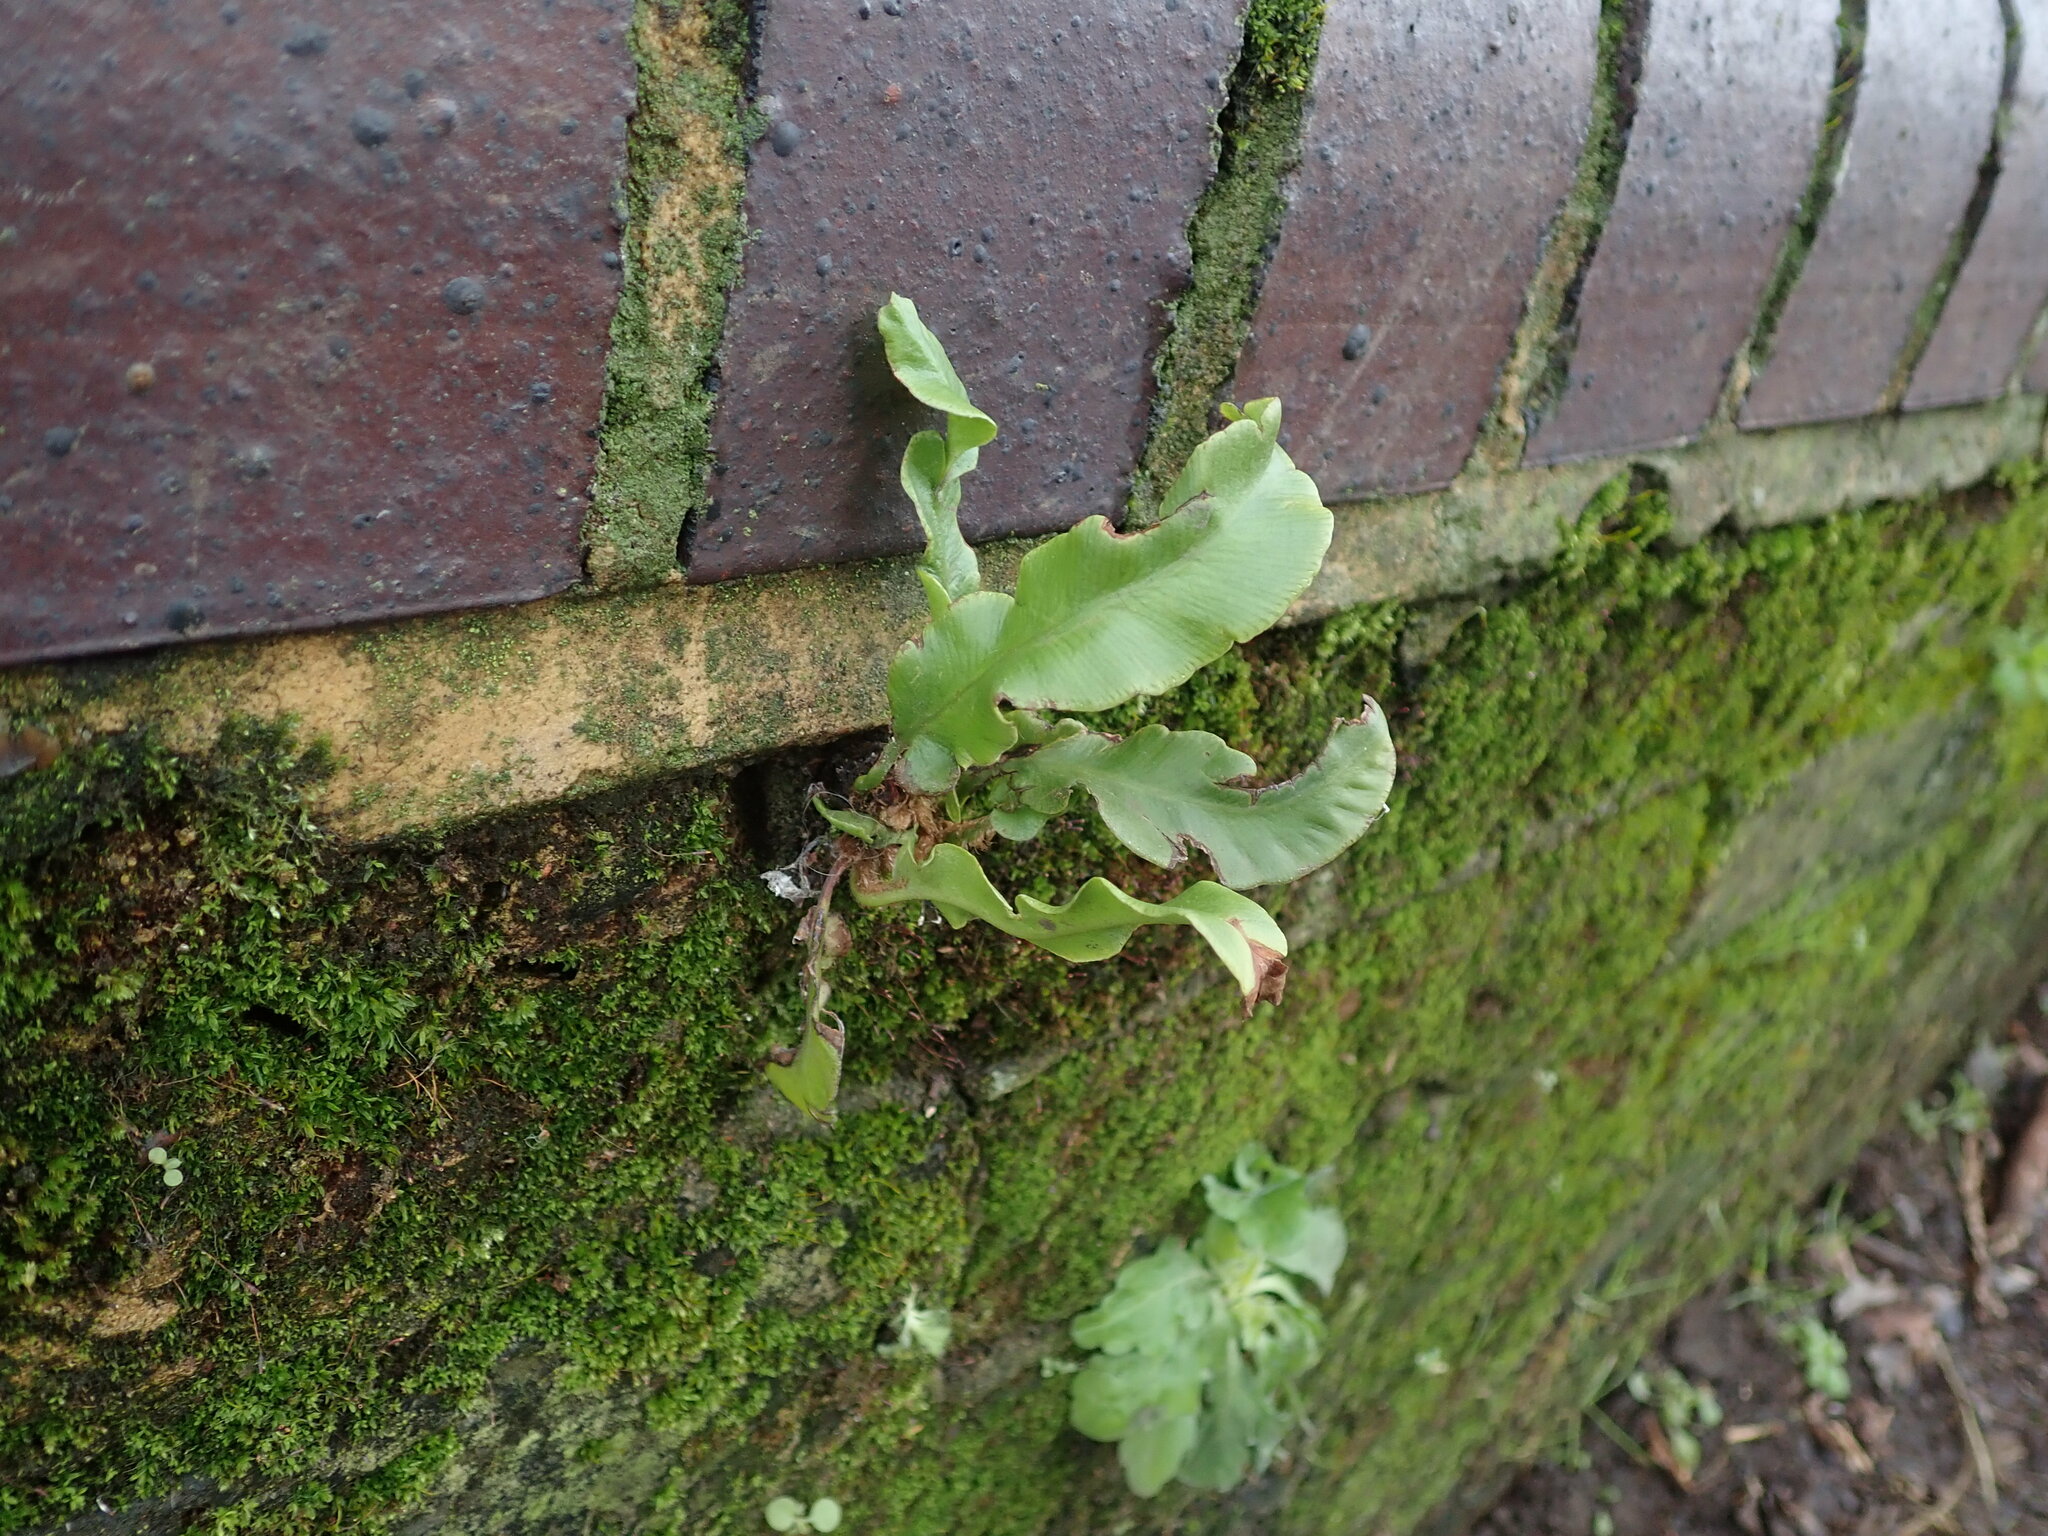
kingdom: Plantae
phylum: Tracheophyta
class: Polypodiopsida
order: Polypodiales
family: Aspleniaceae
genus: Asplenium
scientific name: Asplenium scolopendrium
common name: Hart's-tongue fern
